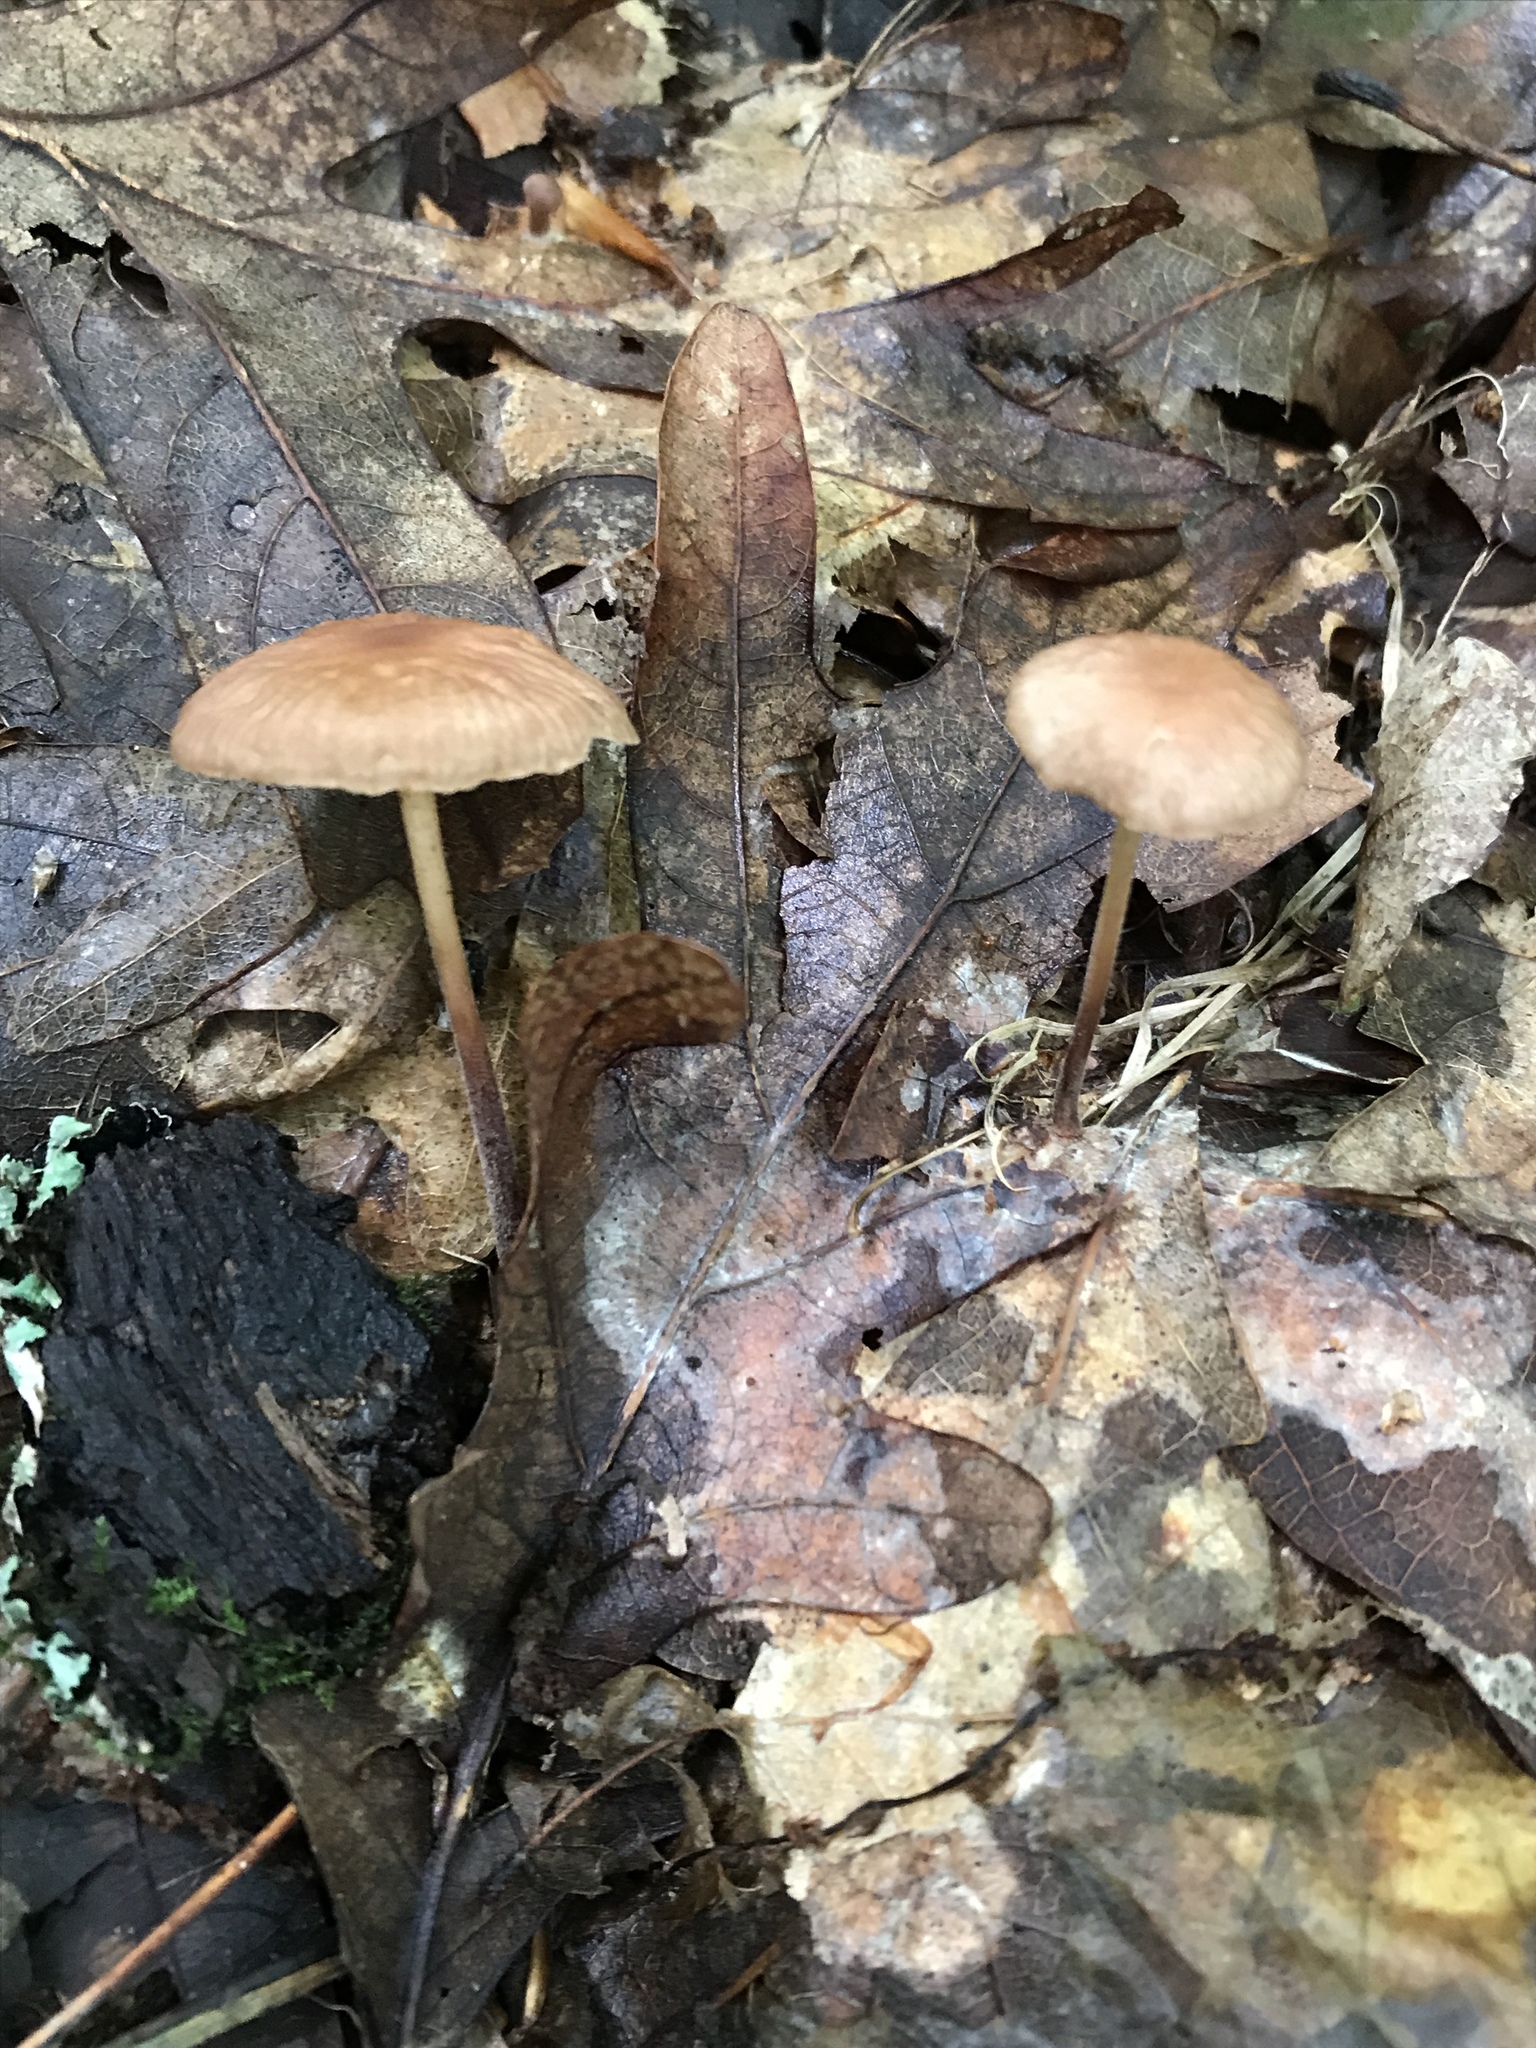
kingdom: Fungi
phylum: Basidiomycota
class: Agaricomycetes
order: Agaricales
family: Omphalotaceae
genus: Collybiopsis
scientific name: Collybiopsis subnuda
